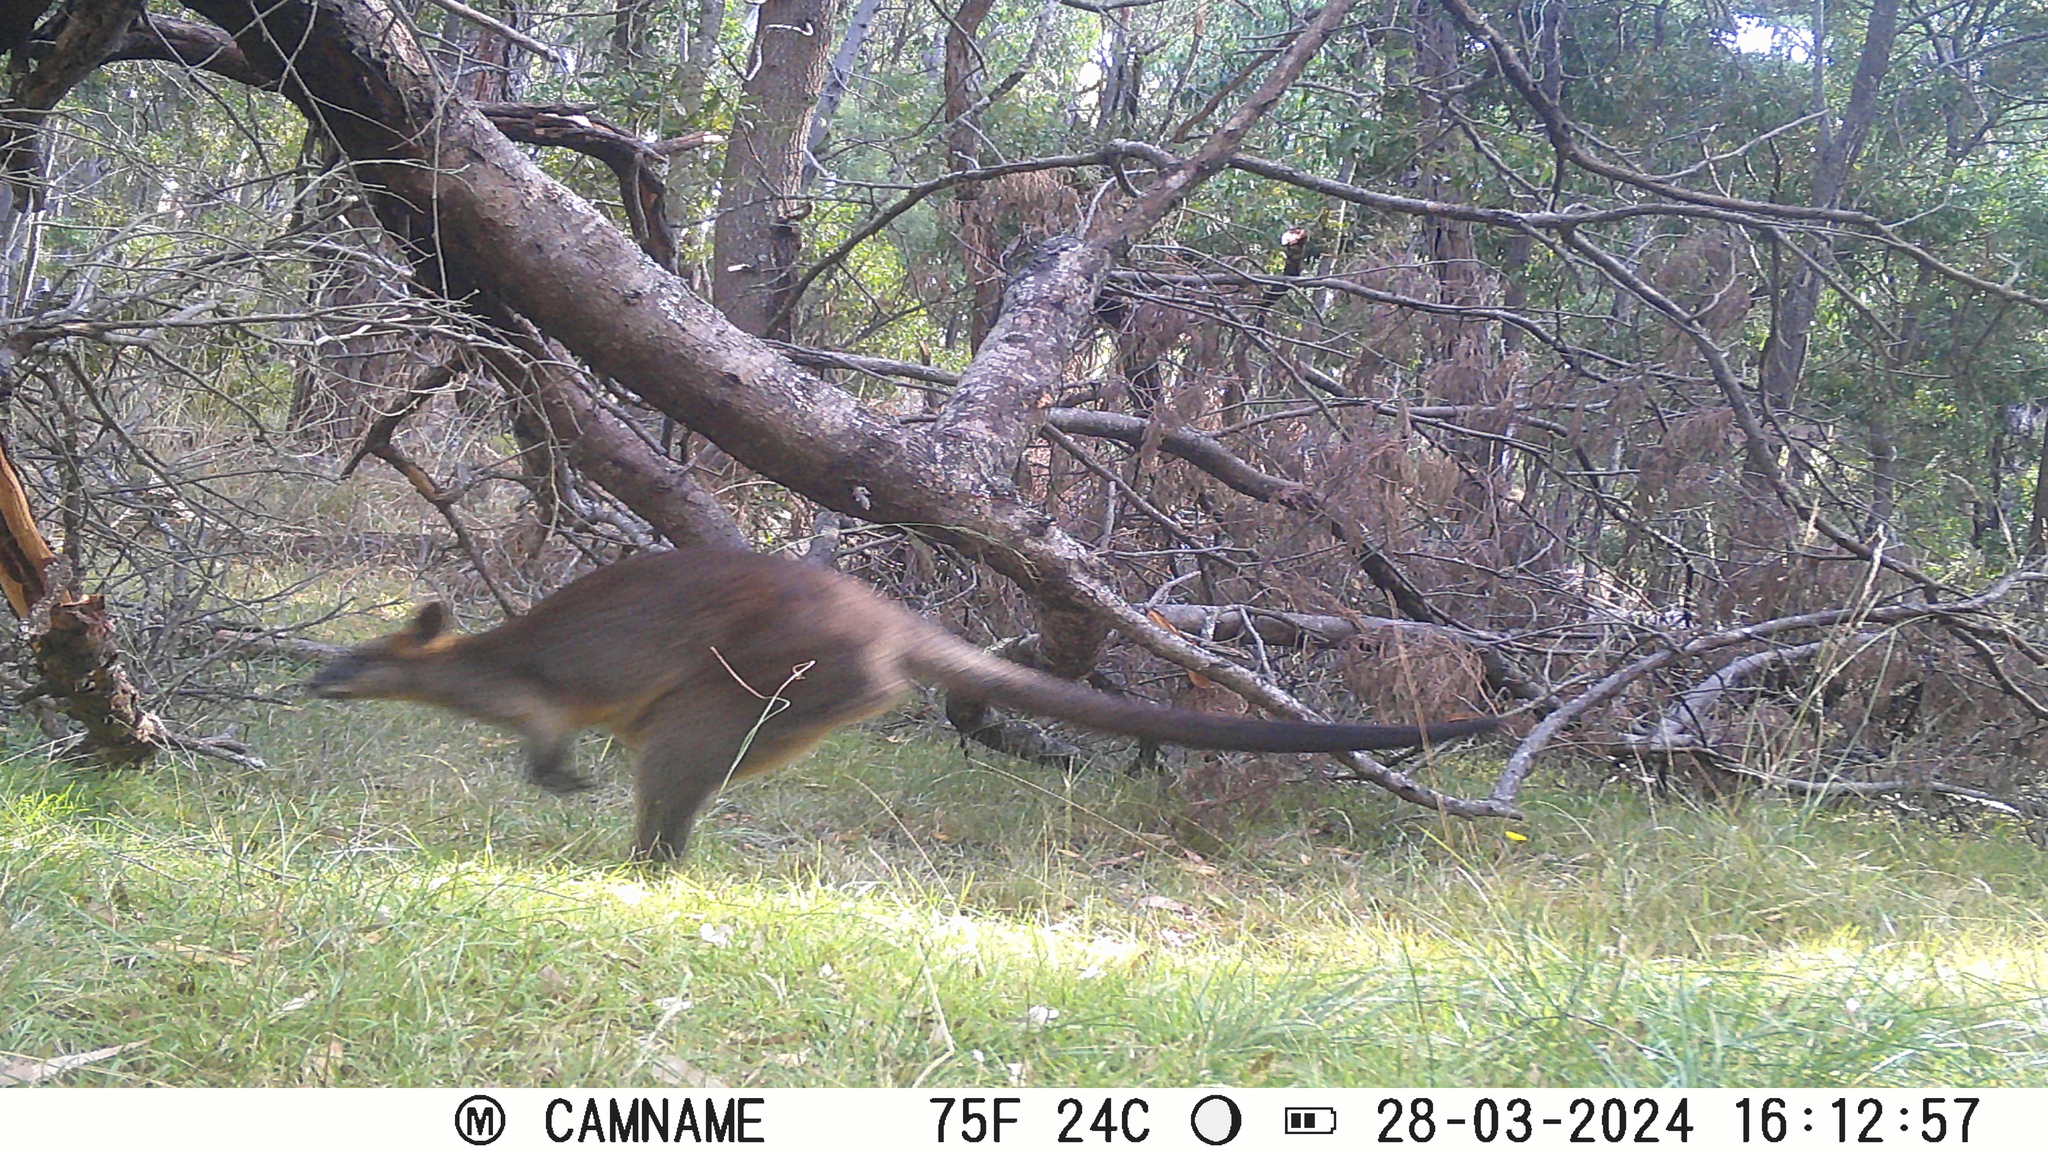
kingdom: Animalia
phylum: Chordata
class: Mammalia
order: Diprotodontia
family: Macropodidae
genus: Wallabia
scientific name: Wallabia bicolor
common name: Swamp wallaby
